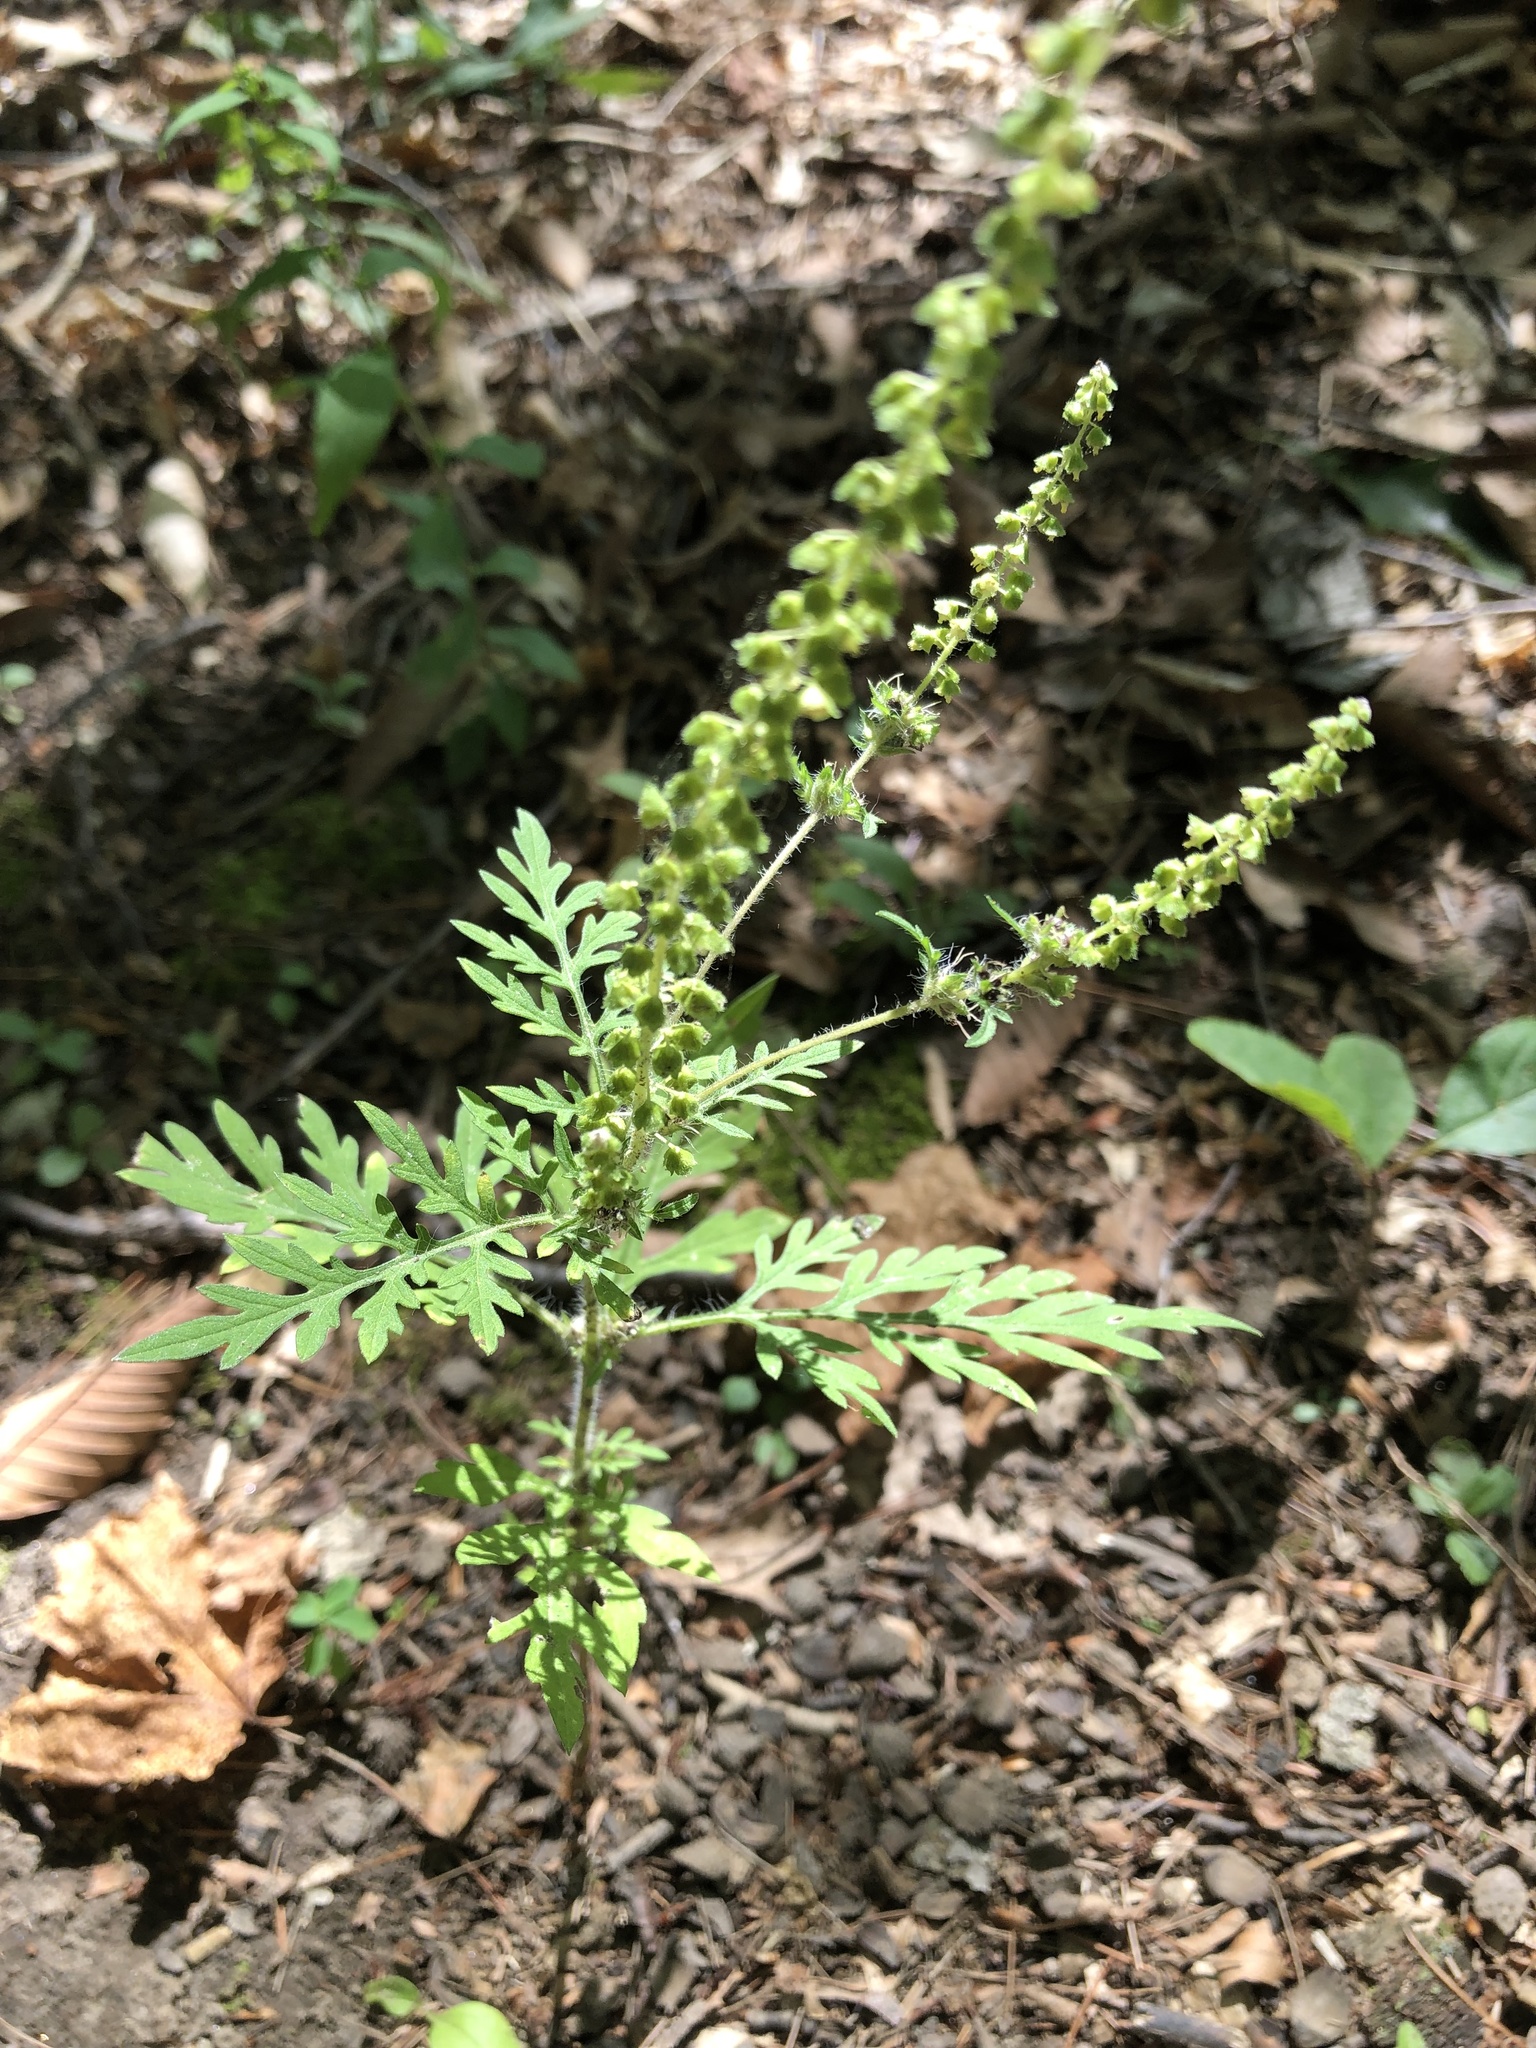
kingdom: Plantae
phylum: Tracheophyta
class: Magnoliopsida
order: Asterales
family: Asteraceae
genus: Ambrosia
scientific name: Ambrosia artemisiifolia
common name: Annual ragweed
